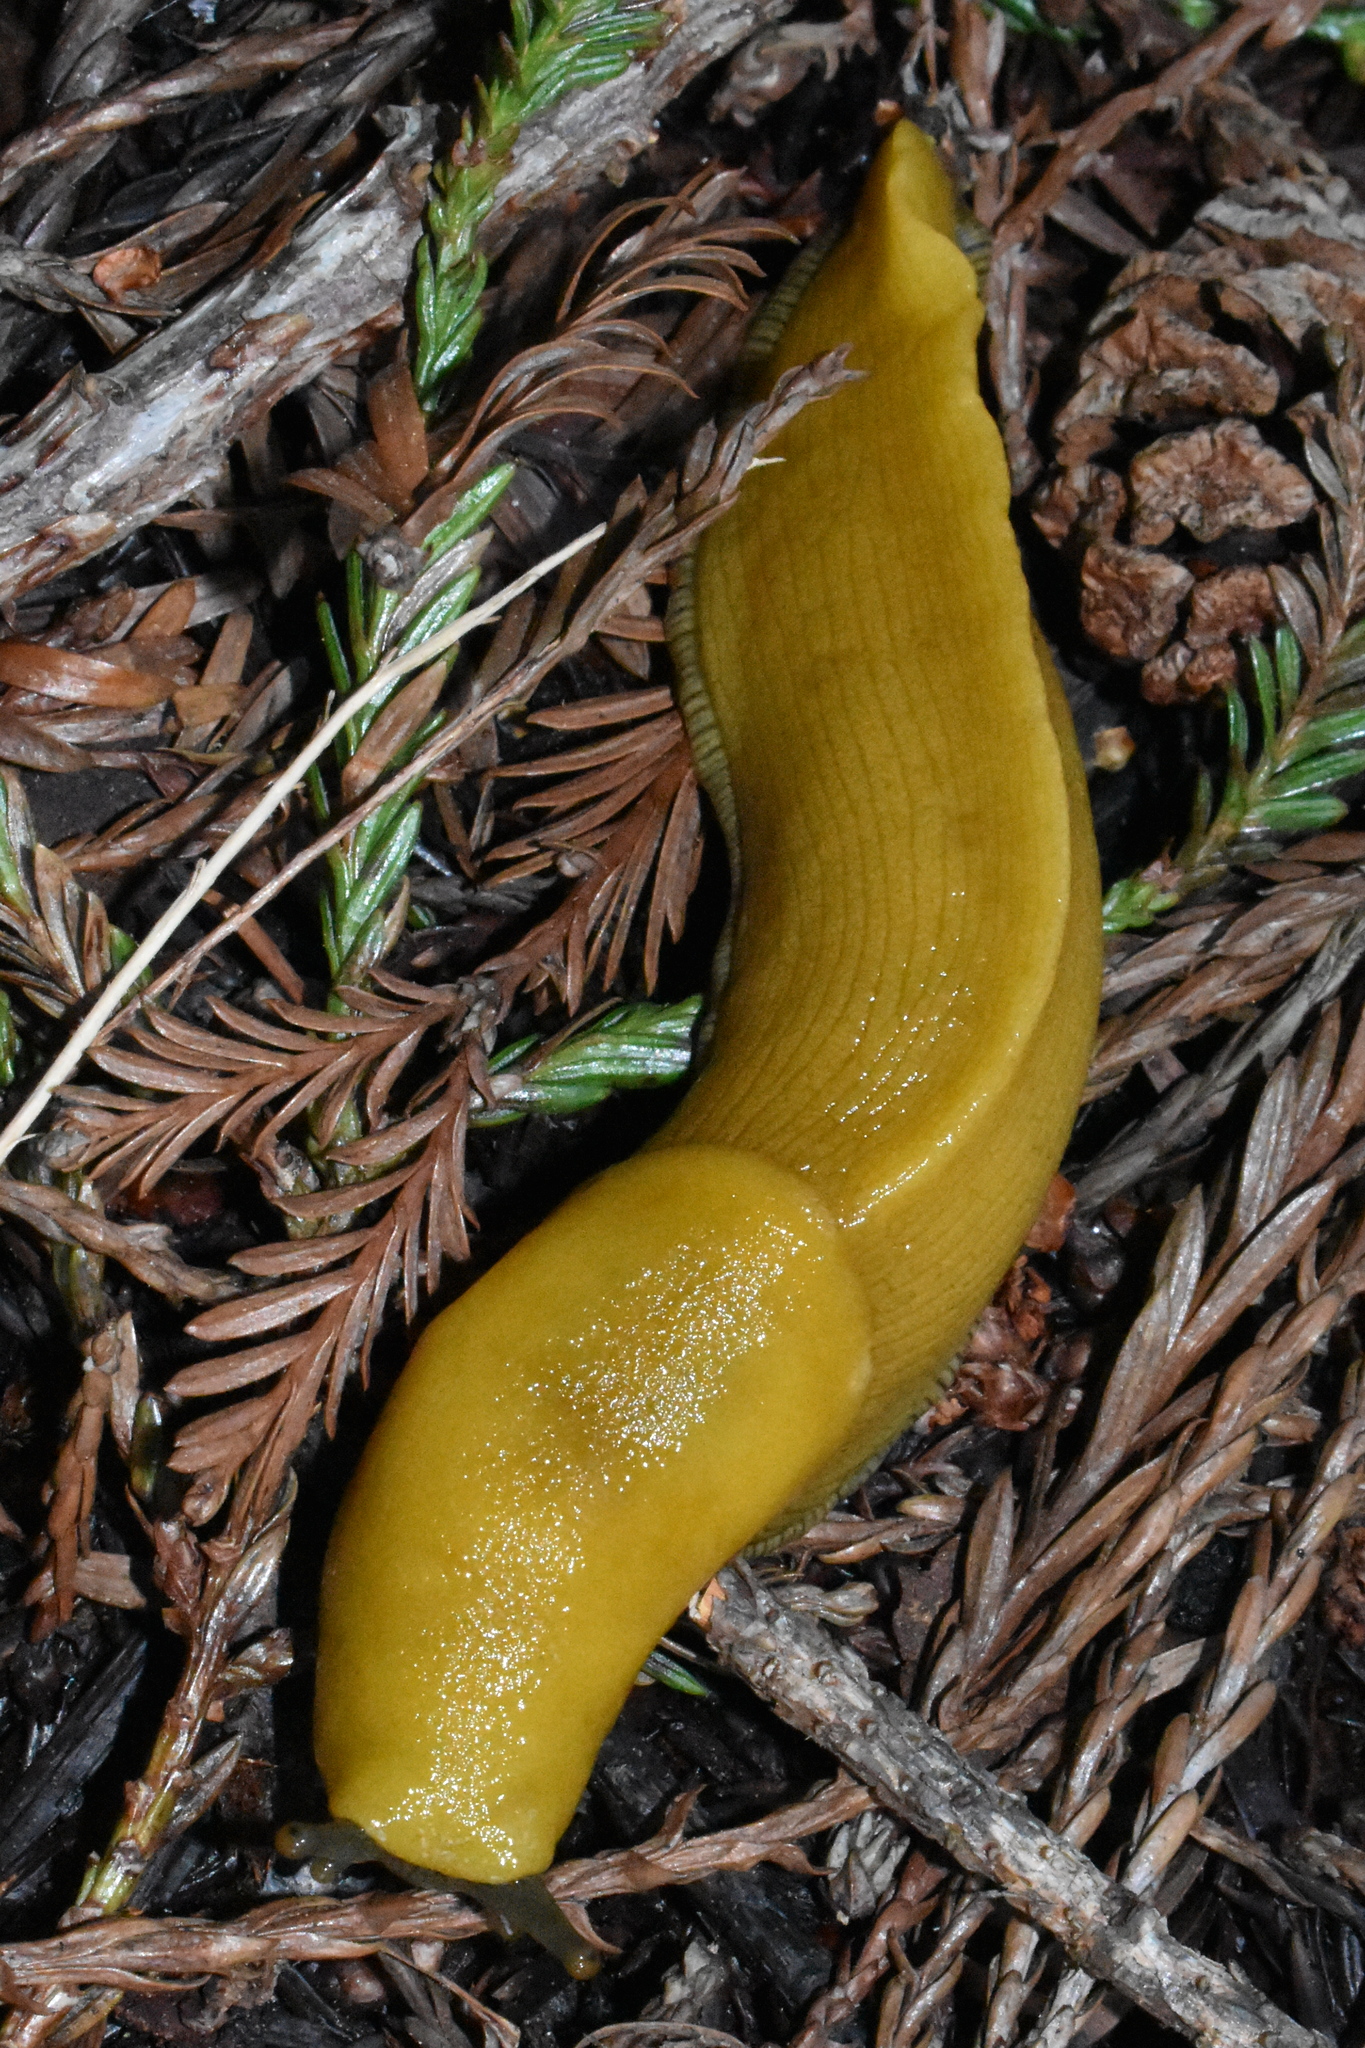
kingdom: Animalia
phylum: Mollusca
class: Gastropoda
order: Stylommatophora
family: Ariolimacidae
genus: Ariolimax
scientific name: Ariolimax californicus
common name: California banana slug
